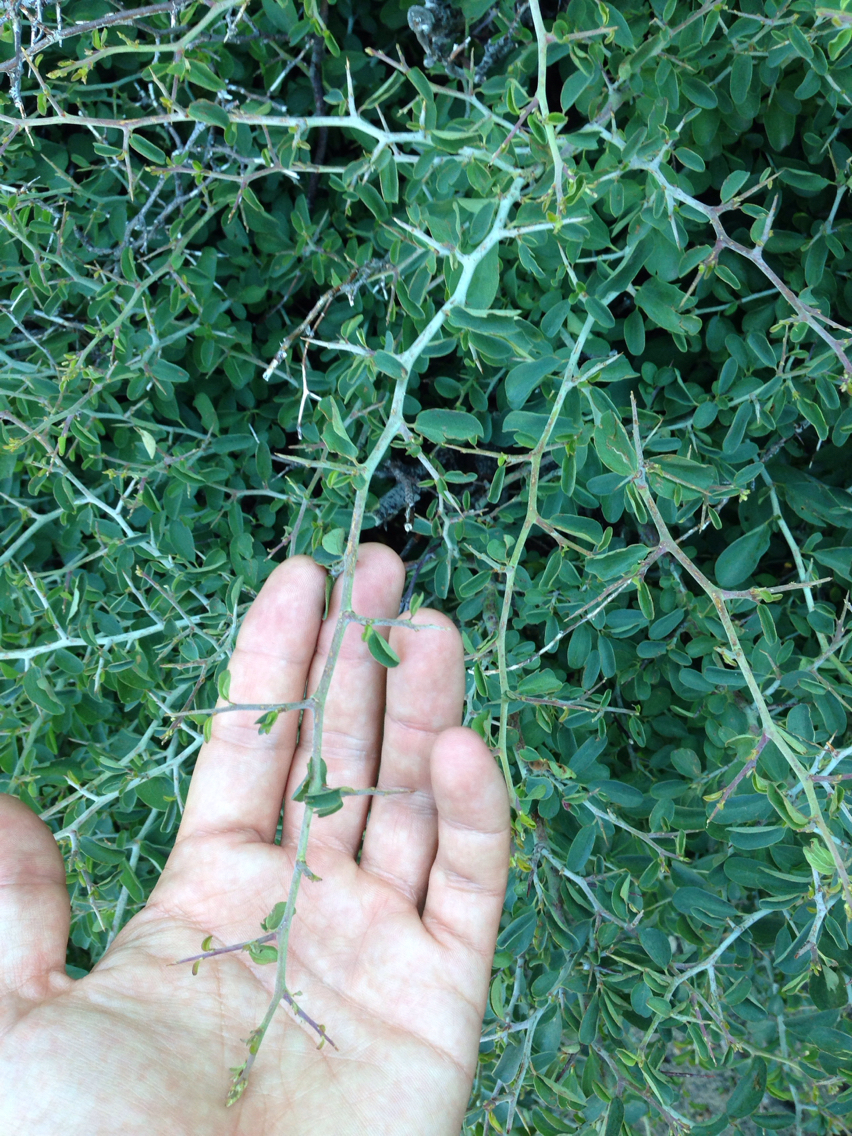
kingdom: Plantae
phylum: Tracheophyta
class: Magnoliopsida
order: Rosales
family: Rhamnaceae
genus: Ceanothus
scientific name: Ceanothus cordulatus
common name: Mountain whitethorn
